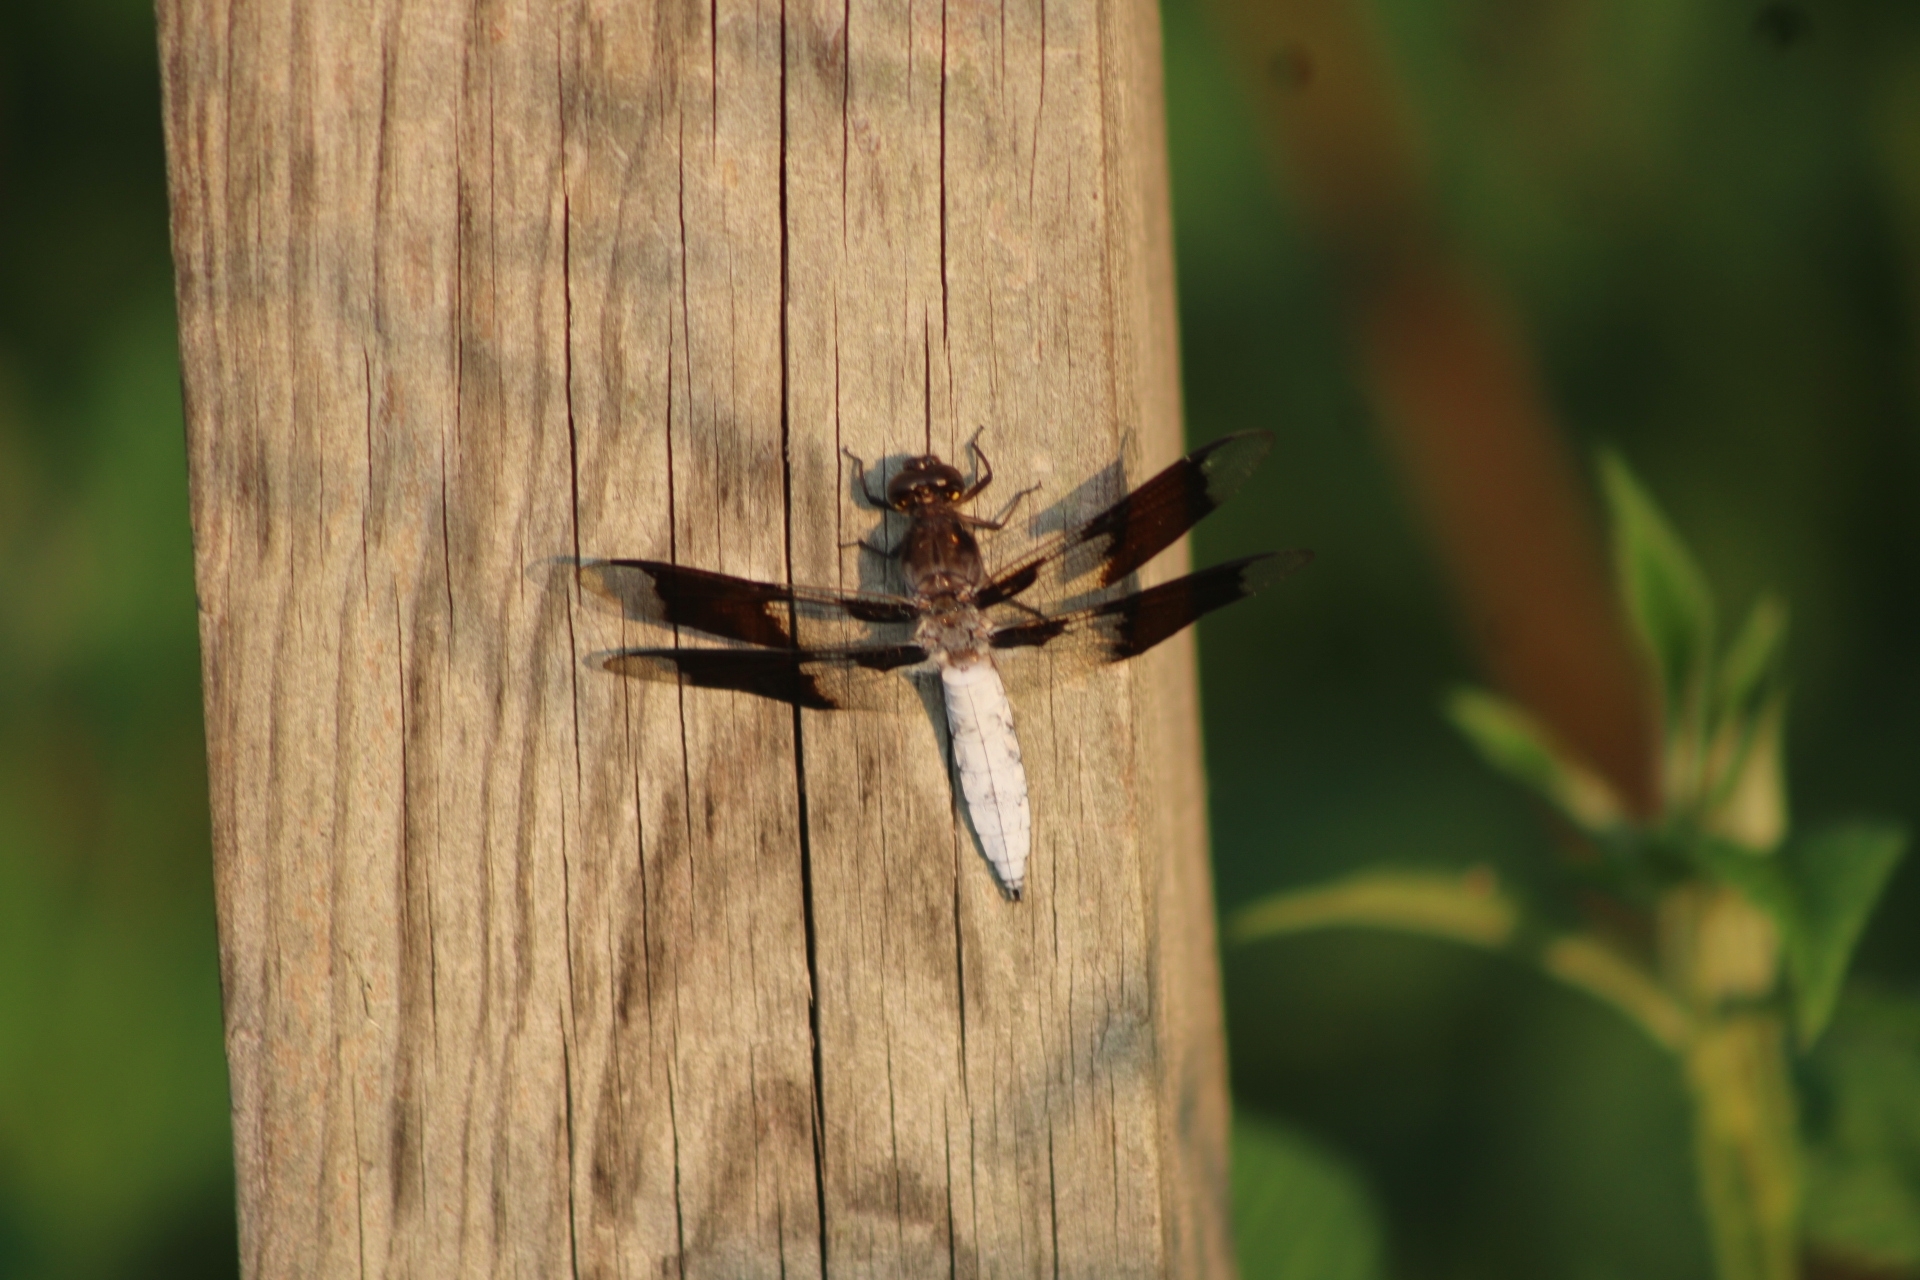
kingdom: Animalia
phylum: Arthropoda
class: Insecta
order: Odonata
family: Libellulidae
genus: Plathemis
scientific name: Plathemis lydia
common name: Common whitetail
